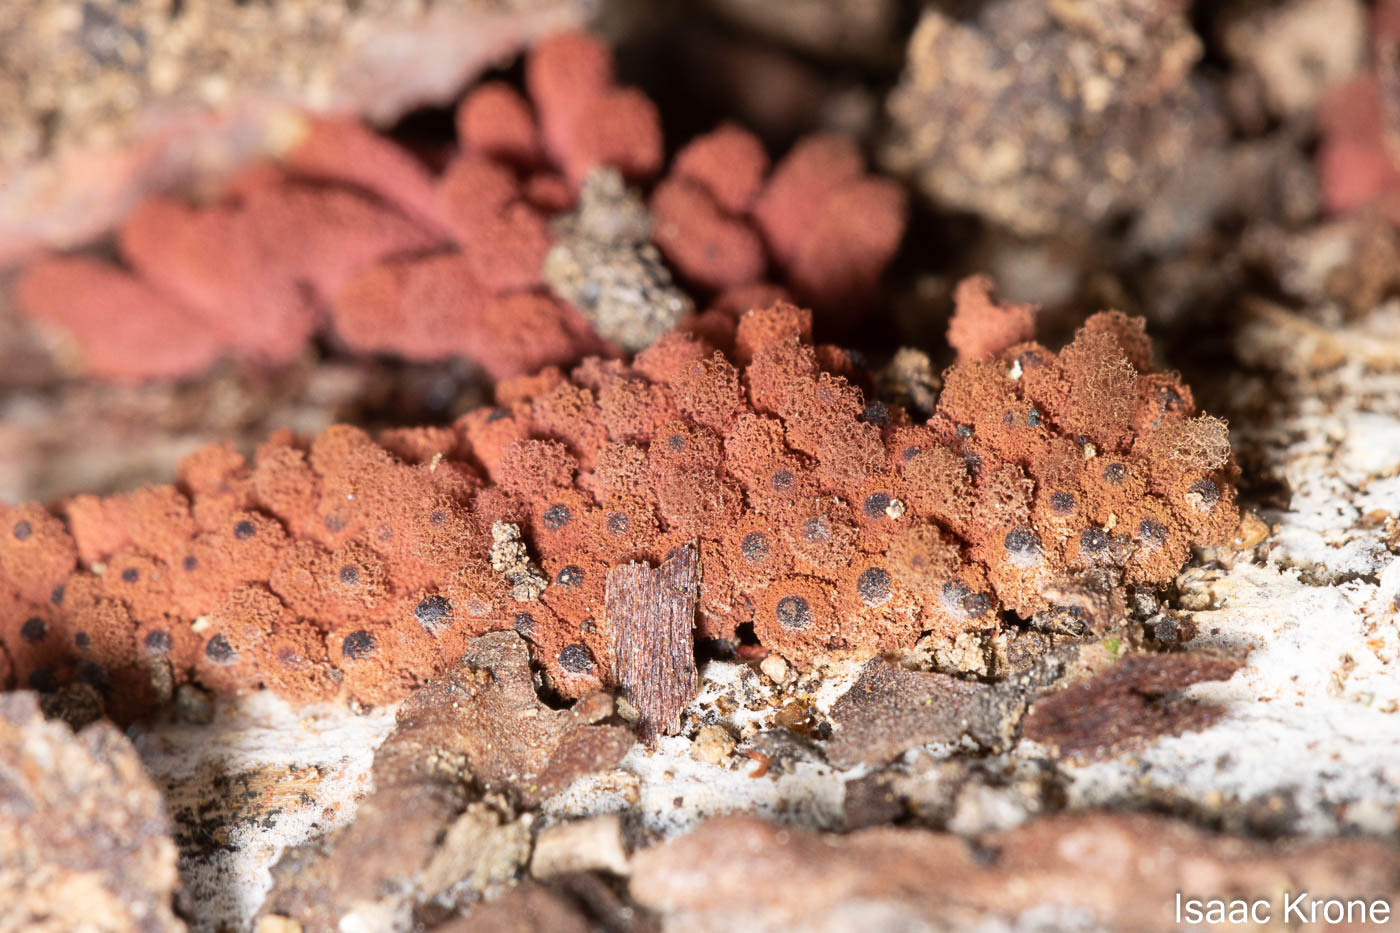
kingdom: Protozoa
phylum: Mycetozoa
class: Myxomycetes
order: Trichiales
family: Arcyriaceae
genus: Arcyria
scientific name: Arcyria denudata
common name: Carnival candy slime mold
